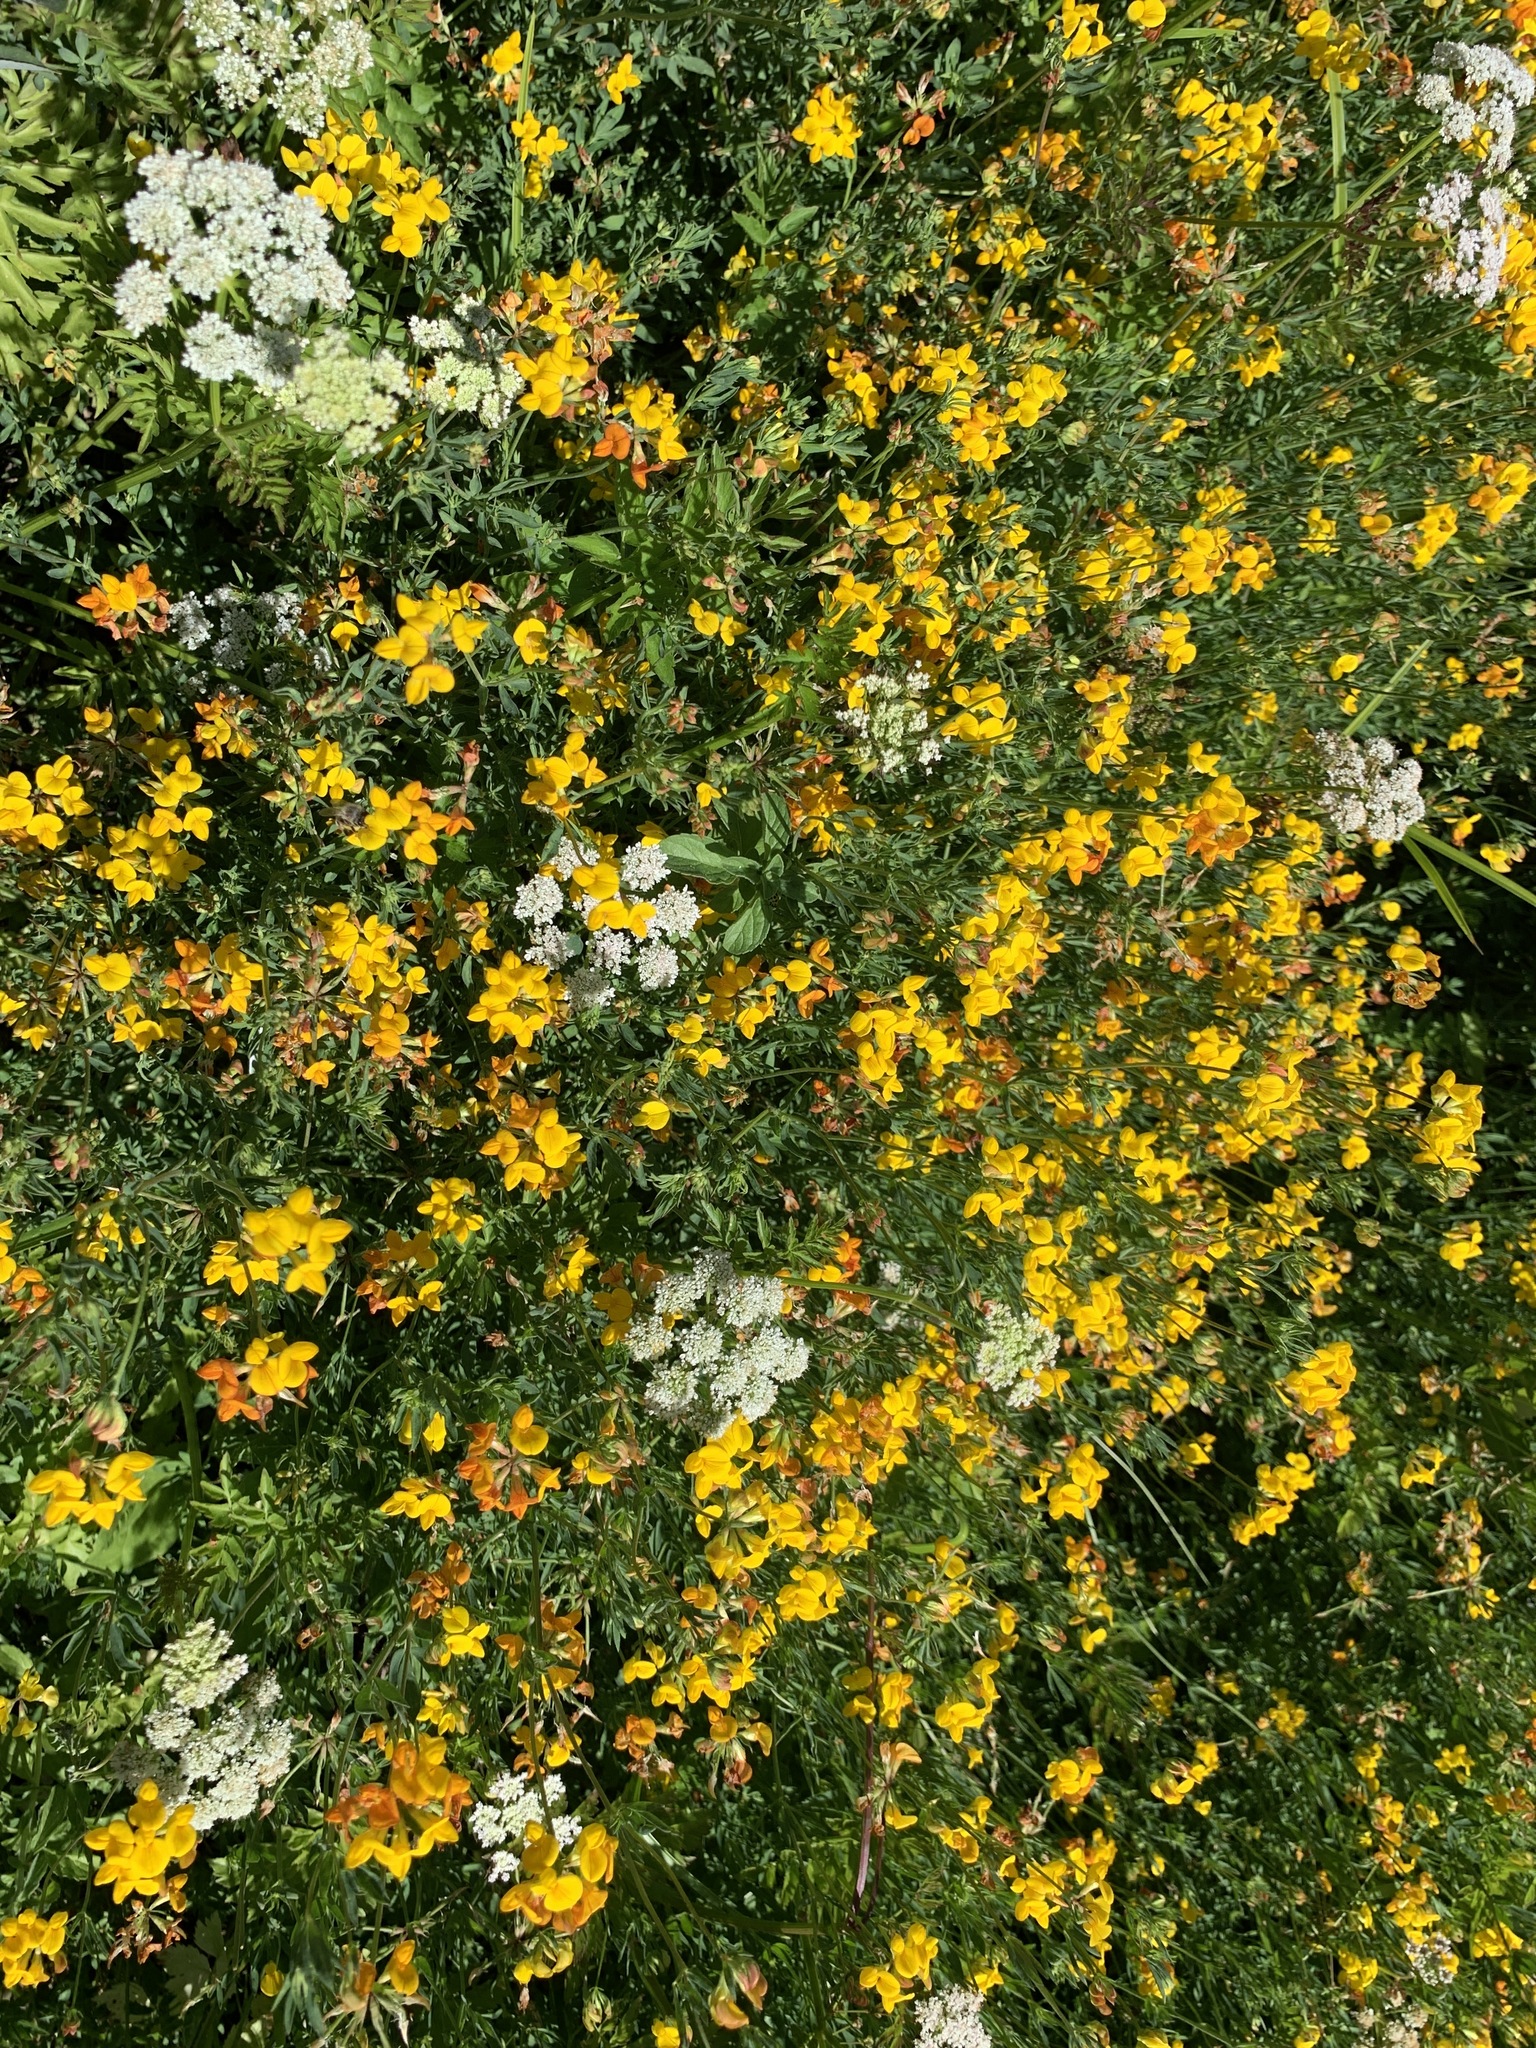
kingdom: Animalia
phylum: Arthropoda
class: Insecta
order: Lepidoptera
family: Lycaenidae
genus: Elkalyce
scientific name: Elkalyce comyntas
